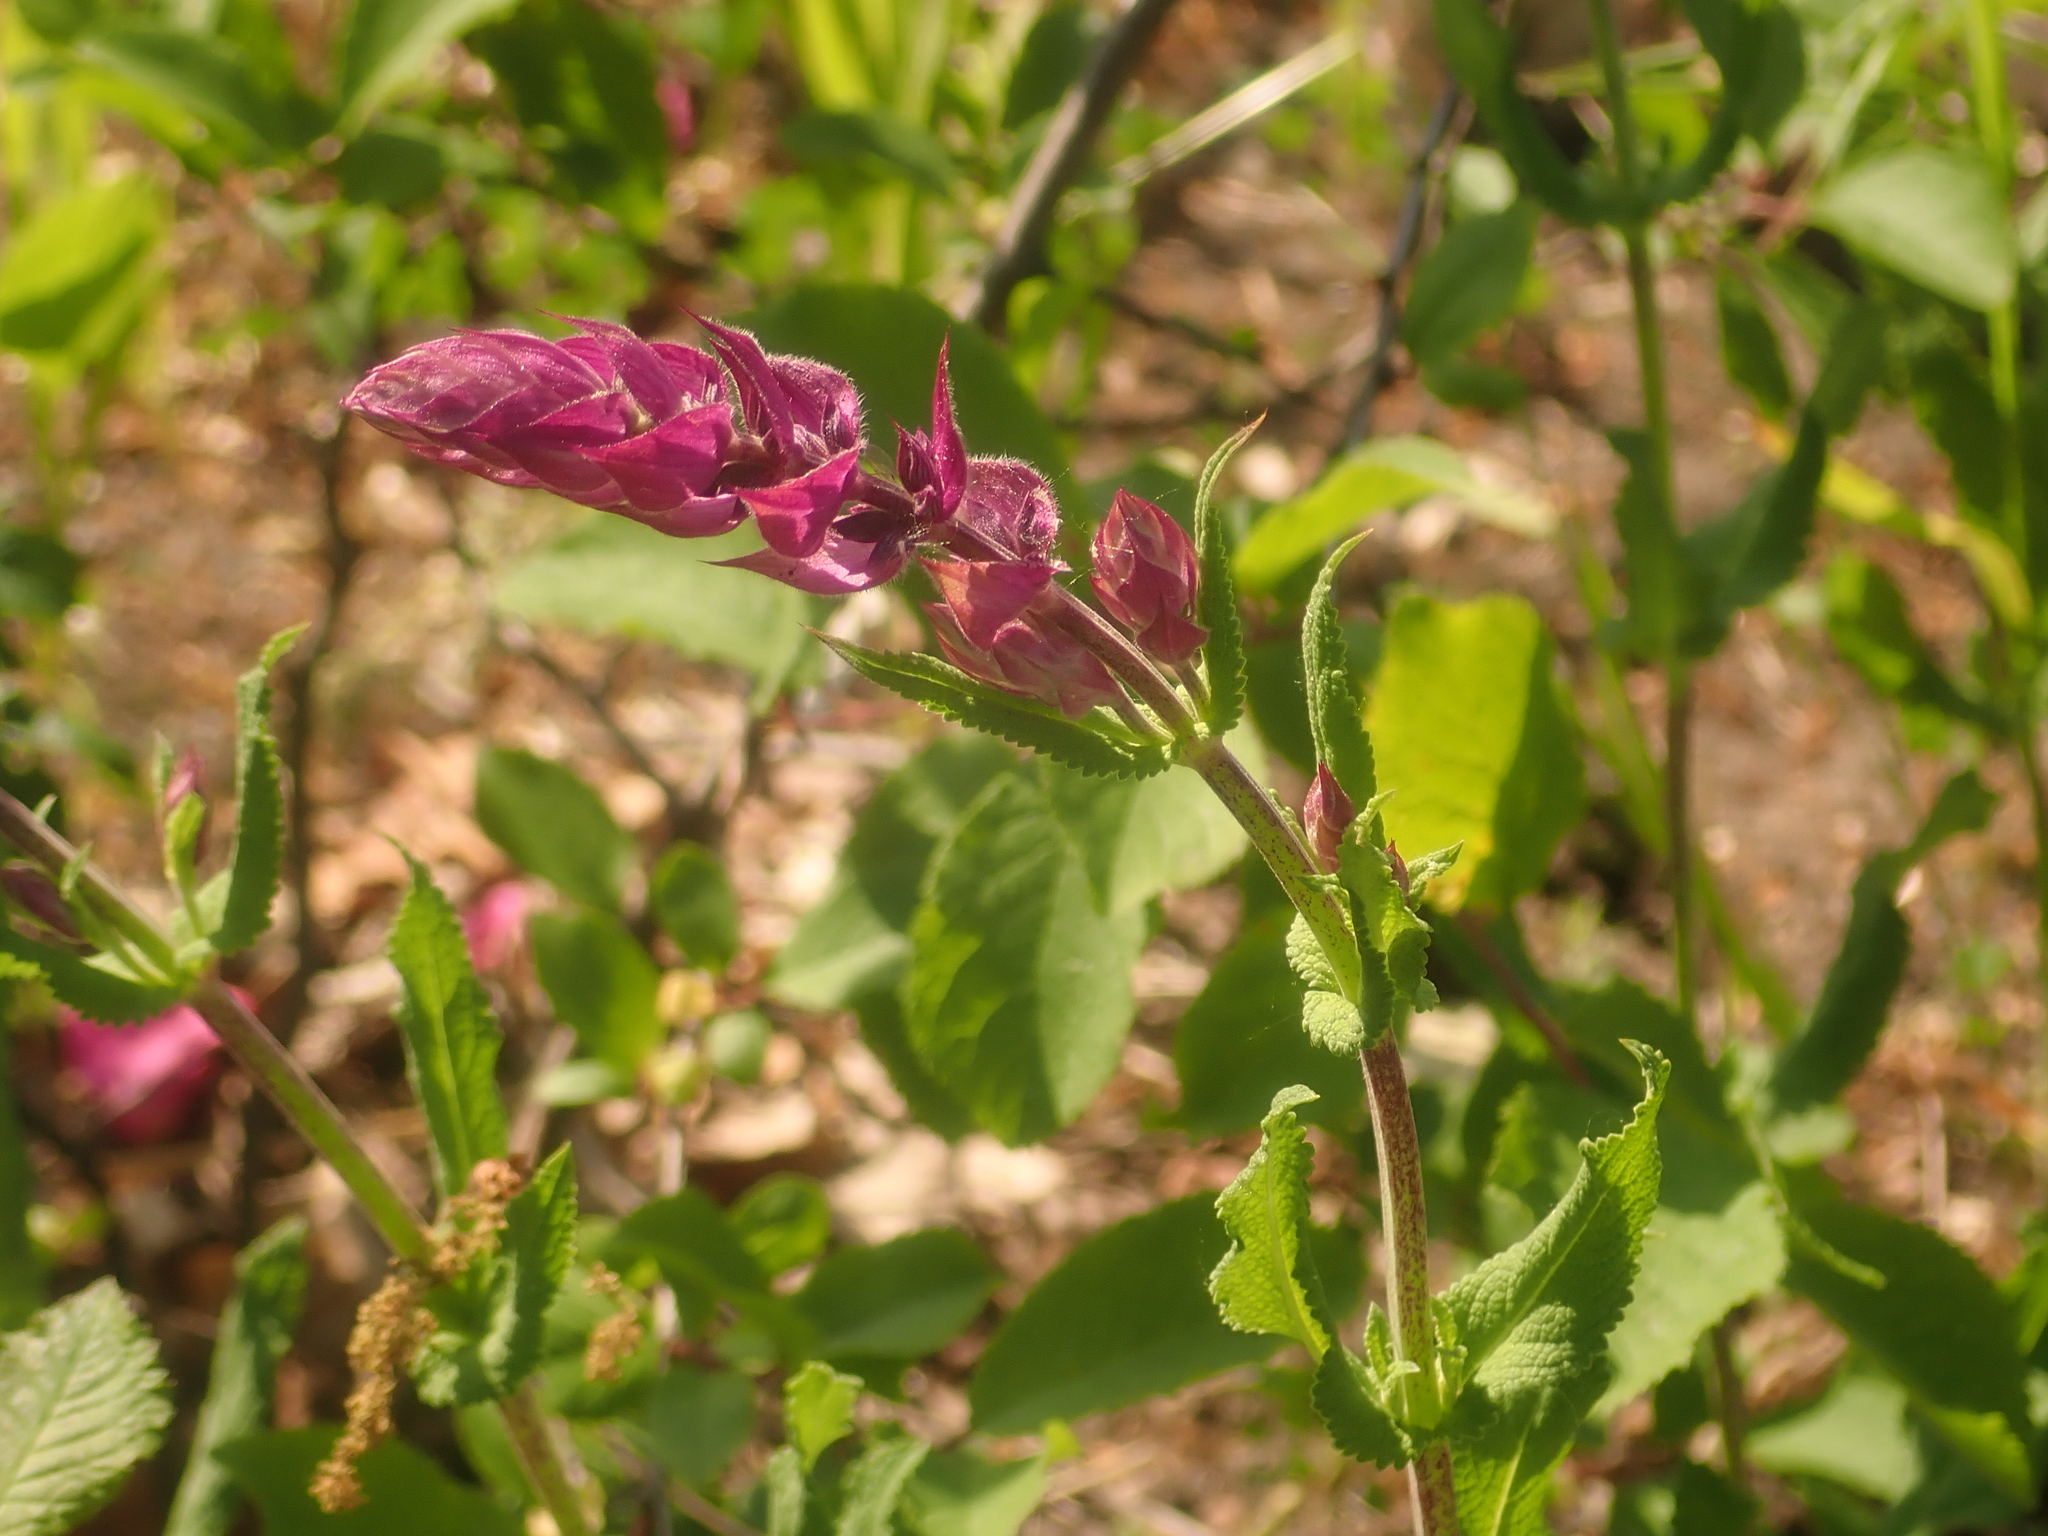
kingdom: Plantae
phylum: Tracheophyta
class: Magnoliopsida
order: Lamiales
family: Lamiaceae
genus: Salvia
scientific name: Salvia nemorosa
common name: Balkan clary
